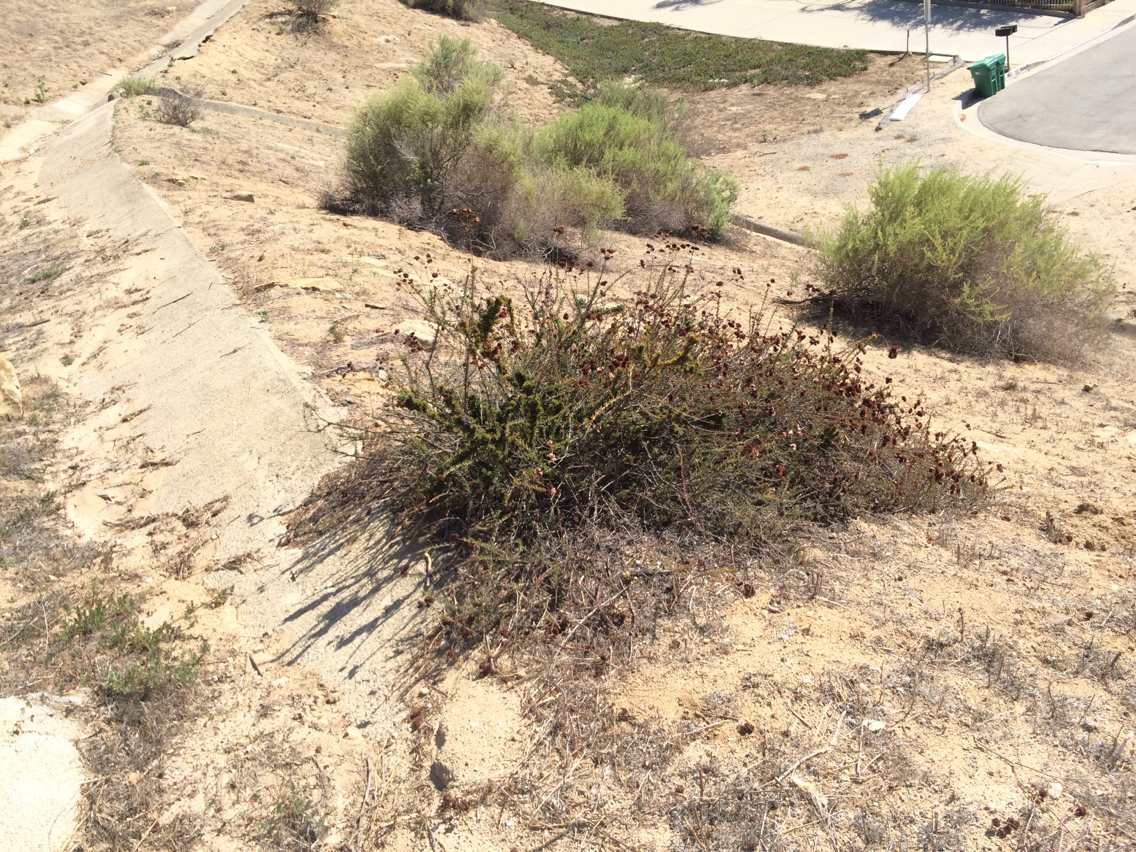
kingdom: Plantae
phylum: Tracheophyta
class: Magnoliopsida
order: Caryophyllales
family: Polygonaceae
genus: Eriogonum
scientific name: Eriogonum fasciculatum
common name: California wild buckwheat
